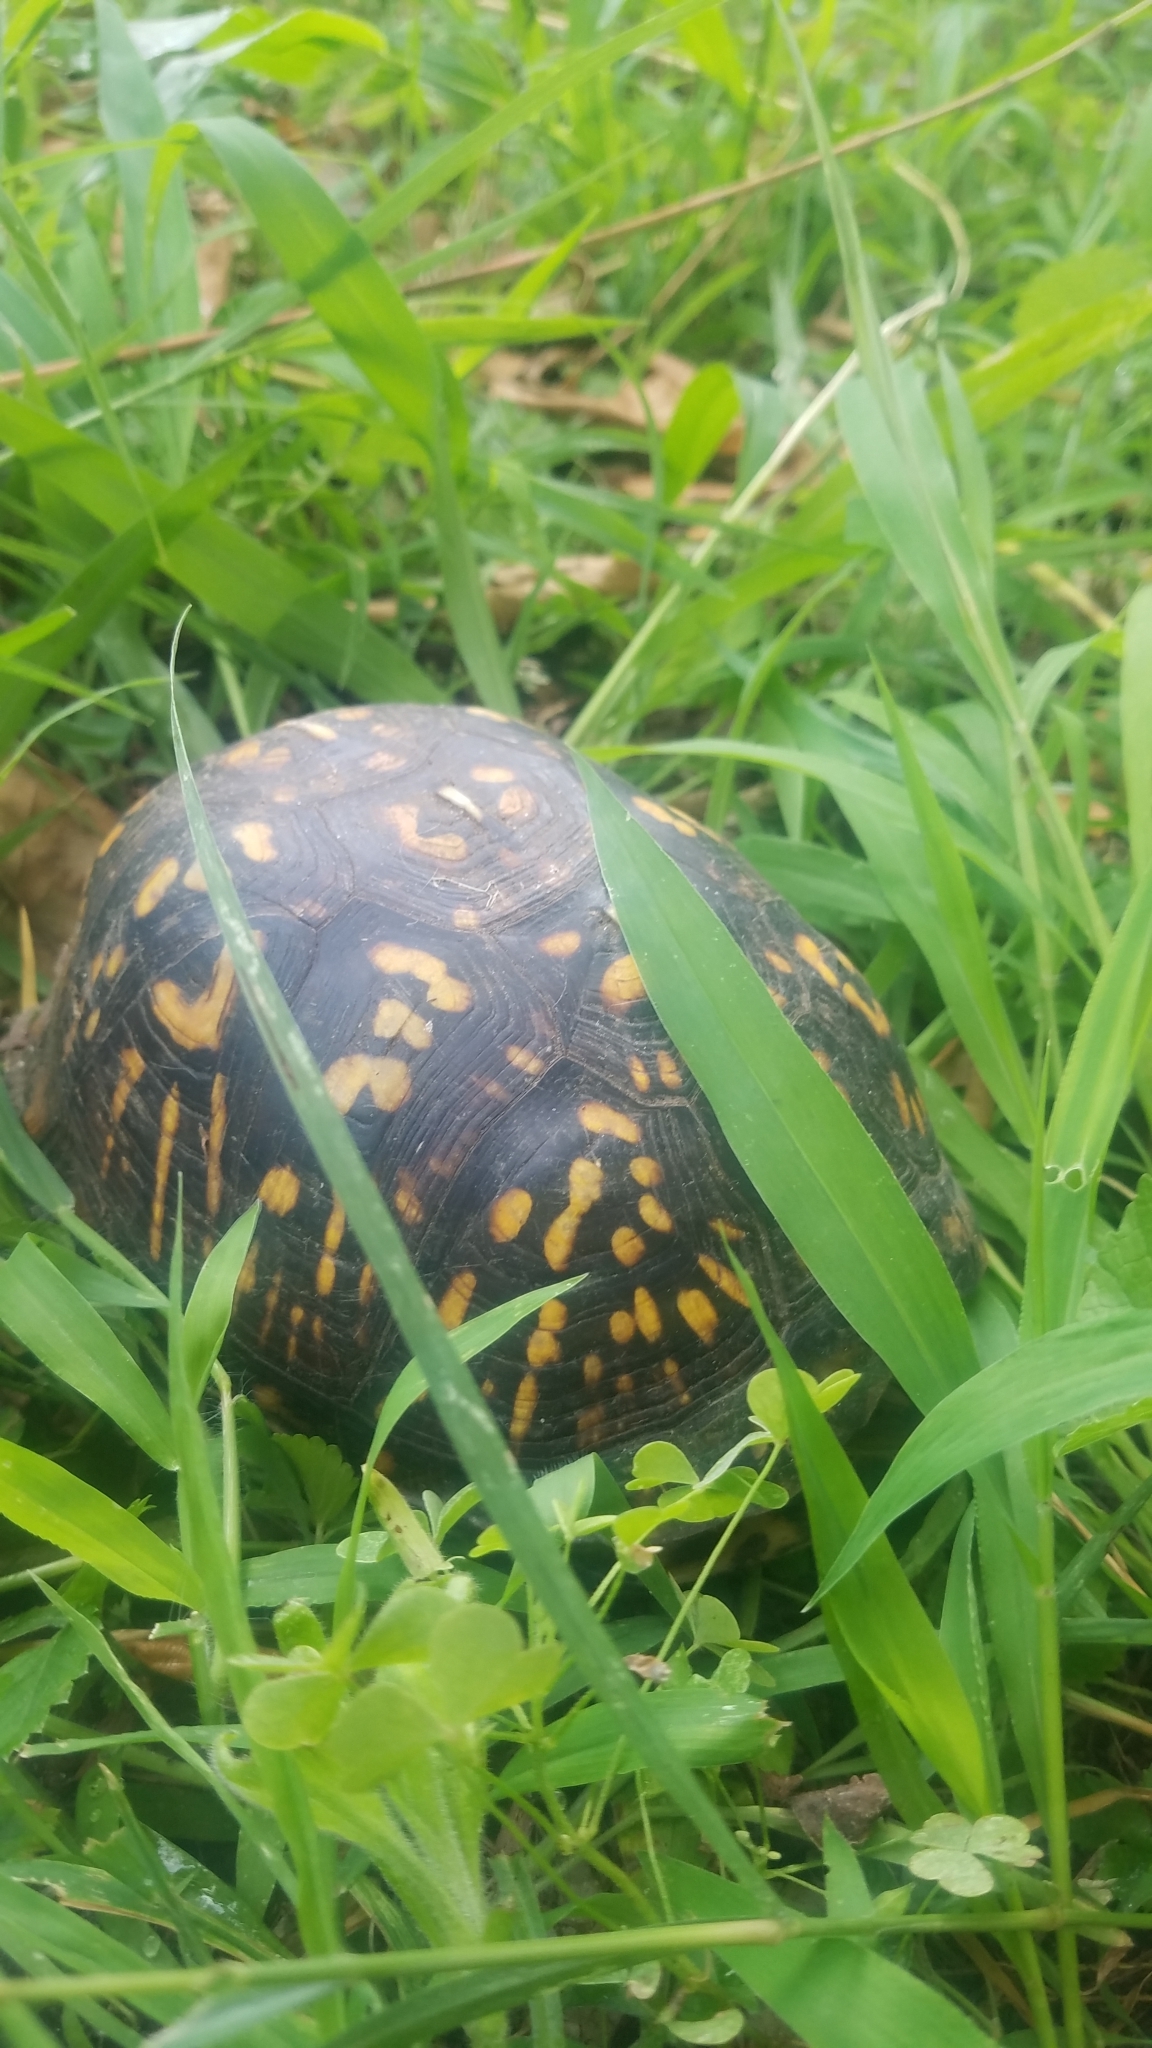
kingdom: Animalia
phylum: Chordata
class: Testudines
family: Emydidae
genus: Terrapene
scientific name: Terrapene carolina
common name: Common box turtle
